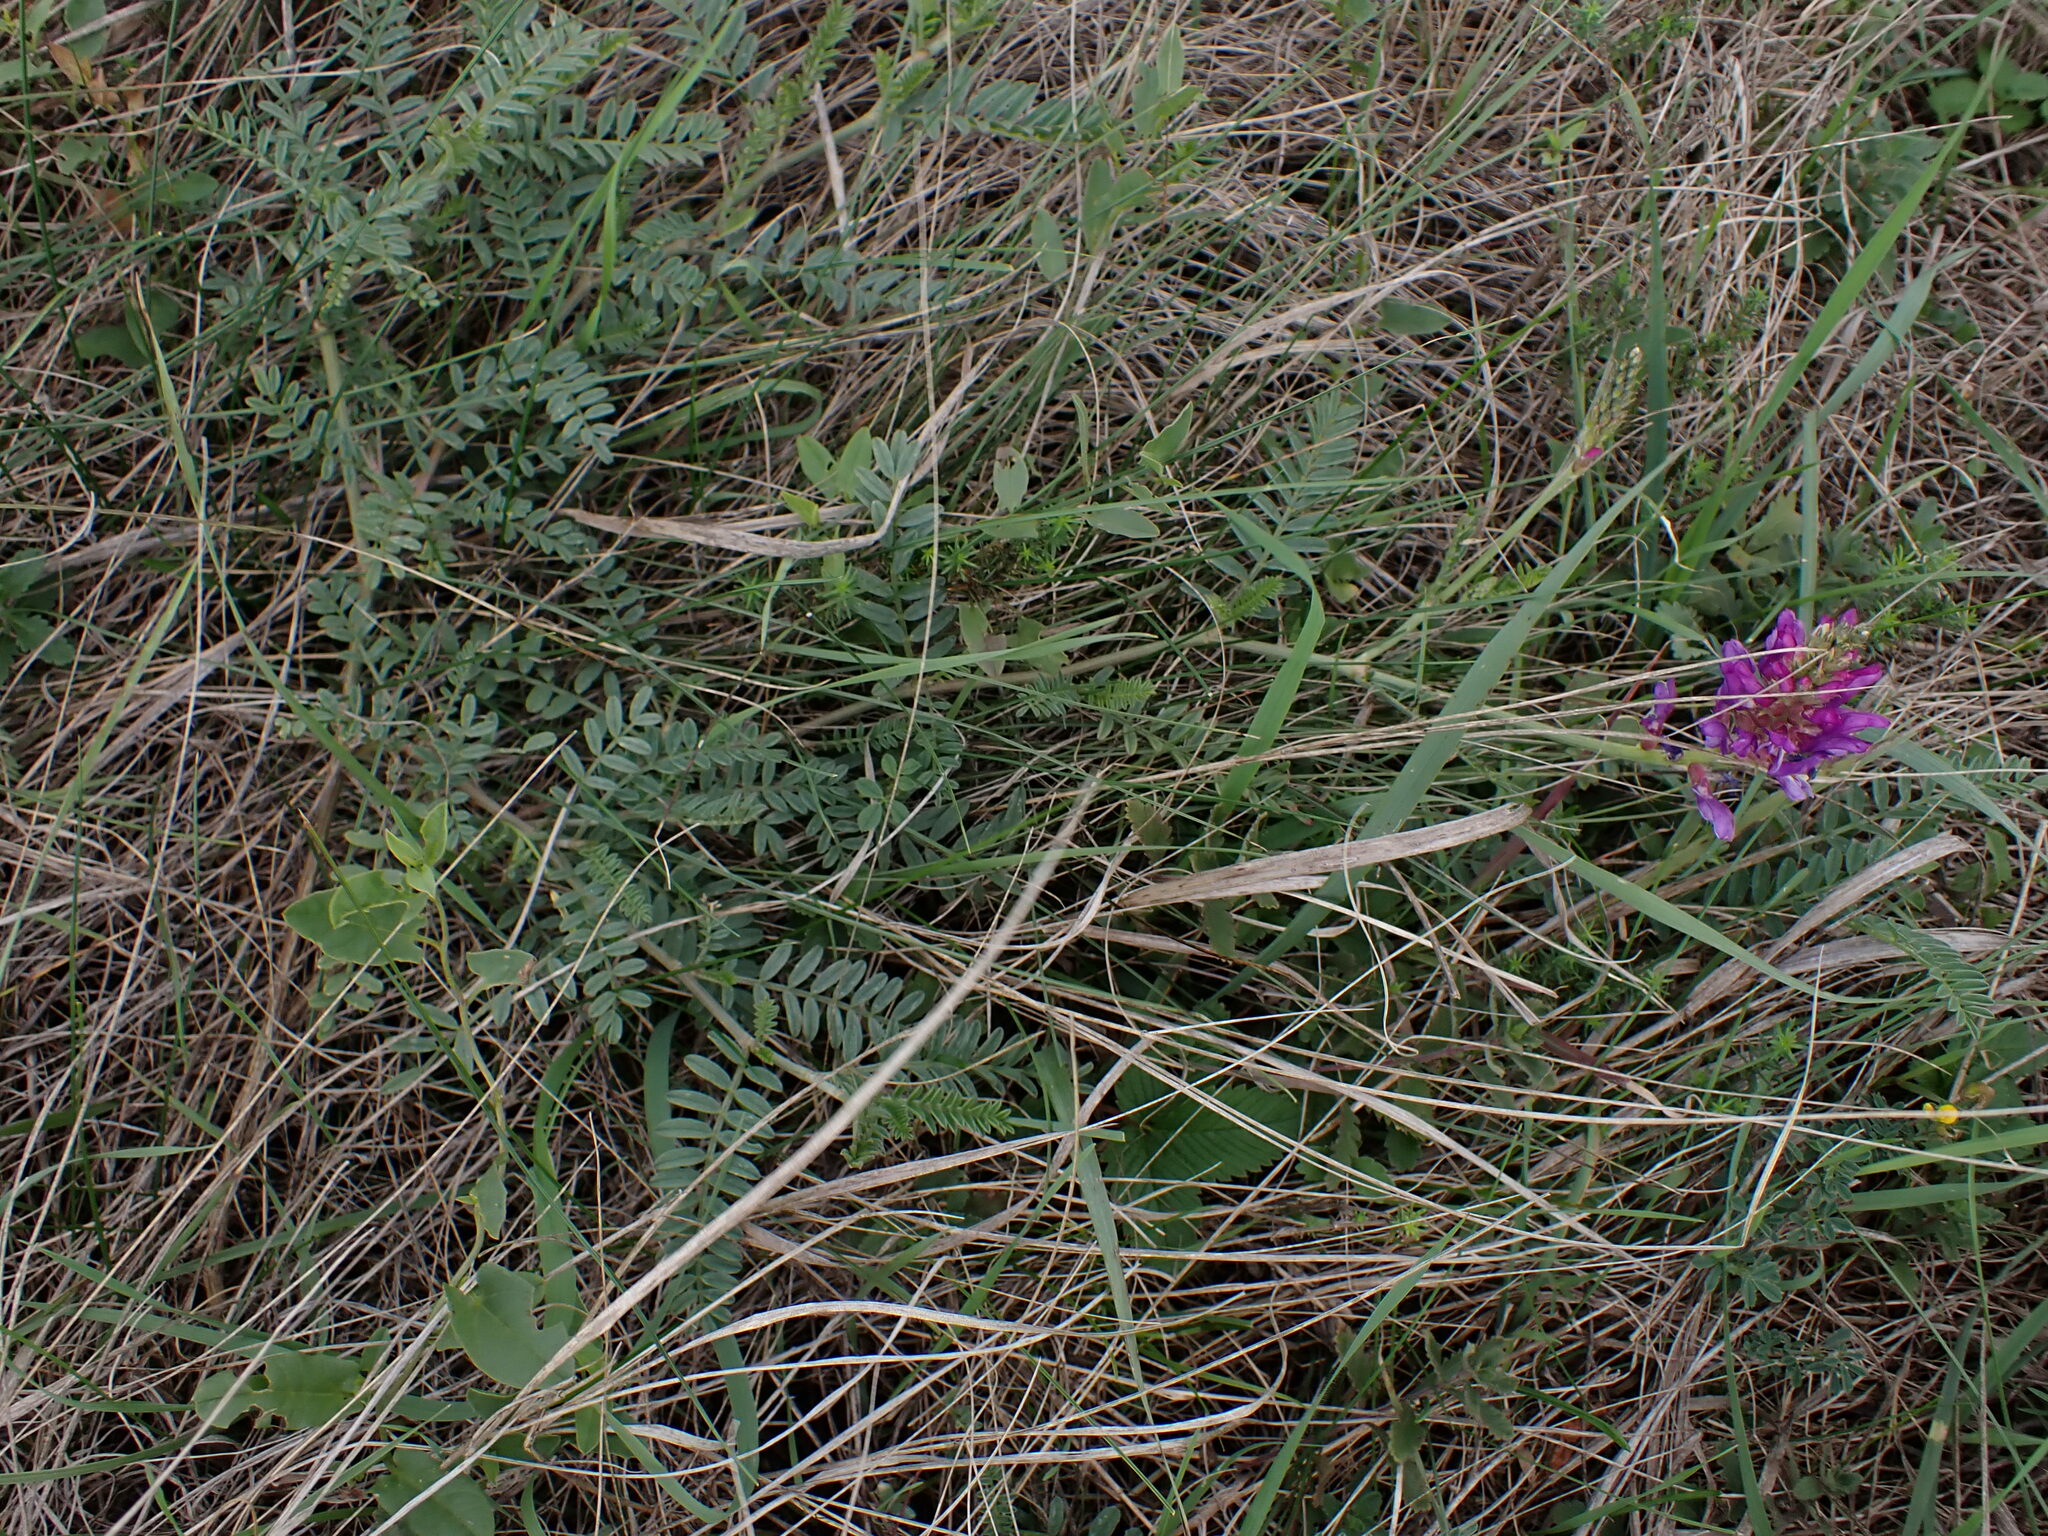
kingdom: Plantae
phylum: Tracheophyta
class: Magnoliopsida
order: Fabales
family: Fabaceae
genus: Astragalus
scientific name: Astragalus onobrychis
